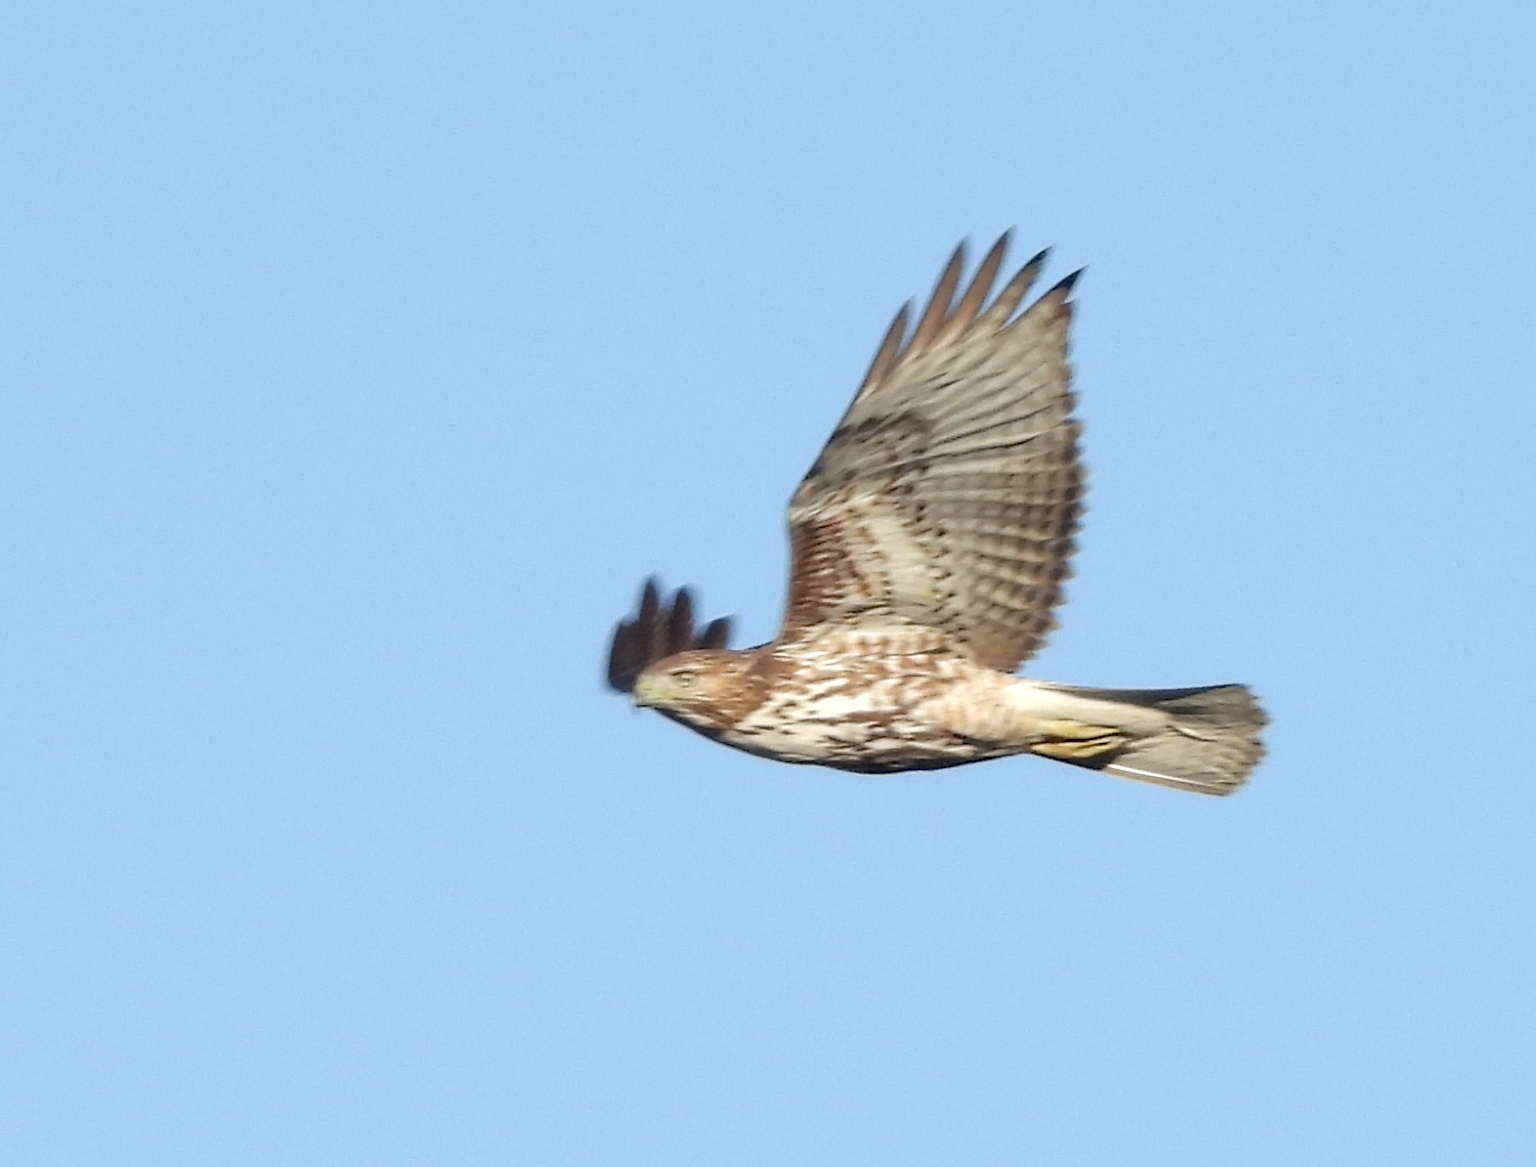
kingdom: Animalia
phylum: Chordata
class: Aves
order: Accipitriformes
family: Accipitridae
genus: Buteo
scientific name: Buteo jamaicensis
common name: Red-tailed hawk
